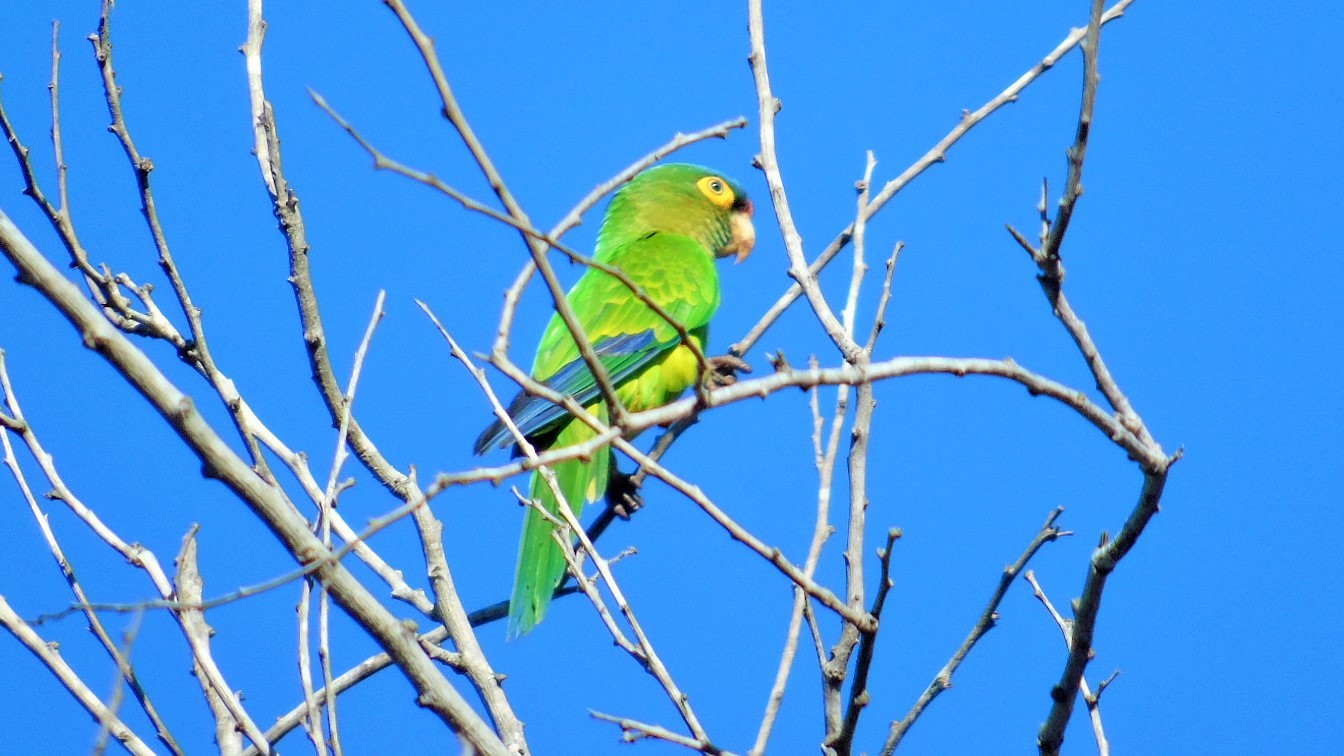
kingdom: Animalia
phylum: Chordata
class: Aves
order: Psittaciformes
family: Psittacidae
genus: Aratinga
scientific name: Aratinga canicularis
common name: Orange-fronted parakeet
